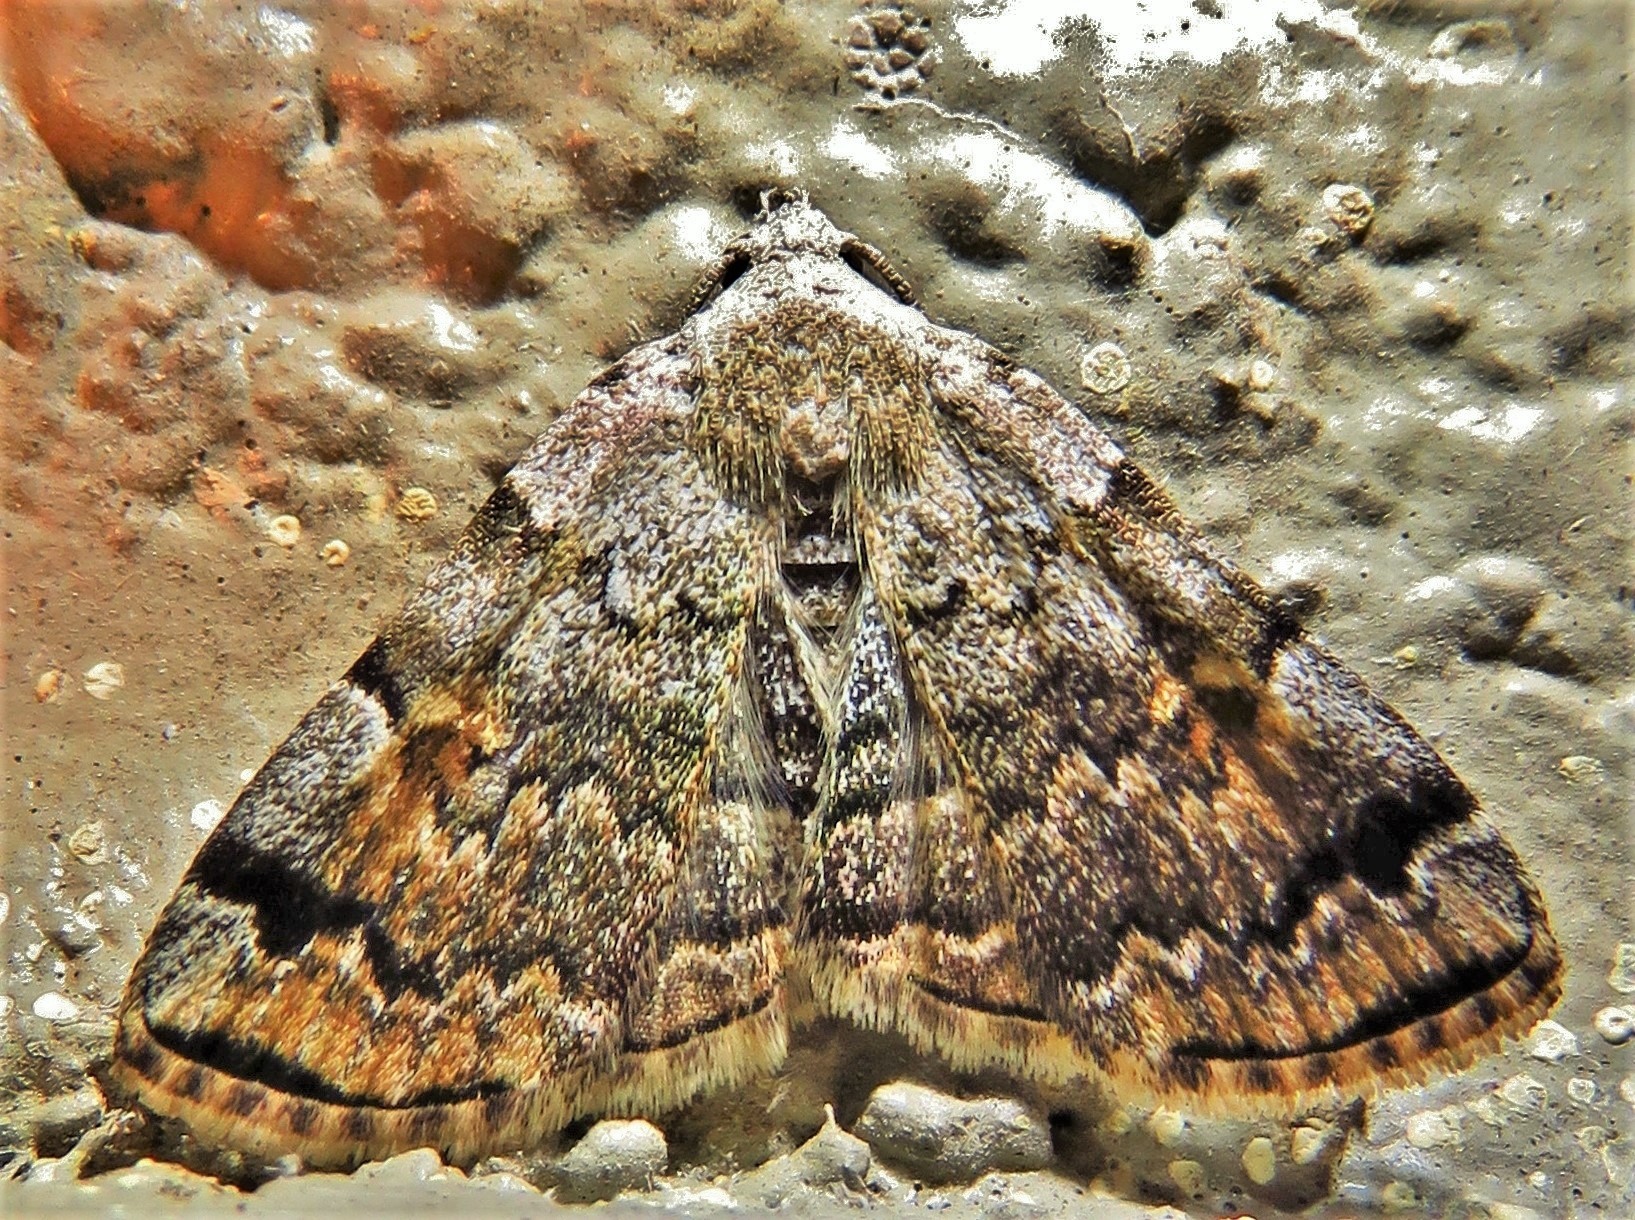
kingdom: Animalia
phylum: Arthropoda
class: Insecta
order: Lepidoptera
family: Erebidae
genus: Idia
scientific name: Idia americalis
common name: American idia moth
